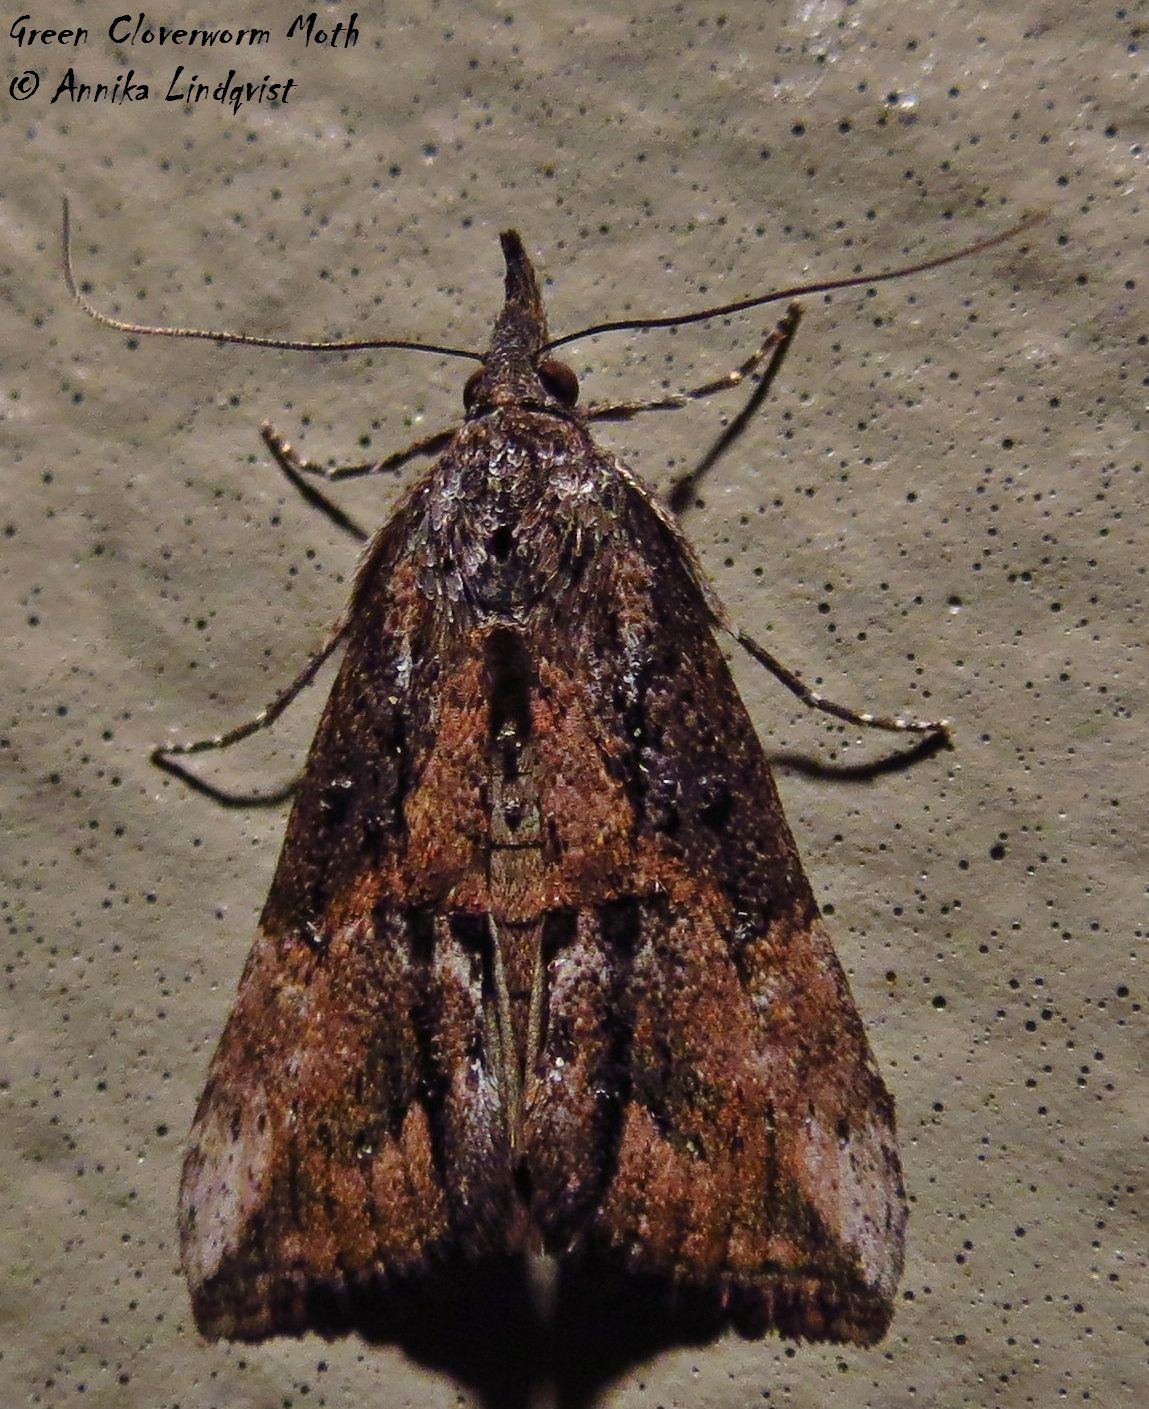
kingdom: Animalia
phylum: Arthropoda
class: Insecta
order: Lepidoptera
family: Erebidae
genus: Hypena
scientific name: Hypena scabra
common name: Green cloverworm
